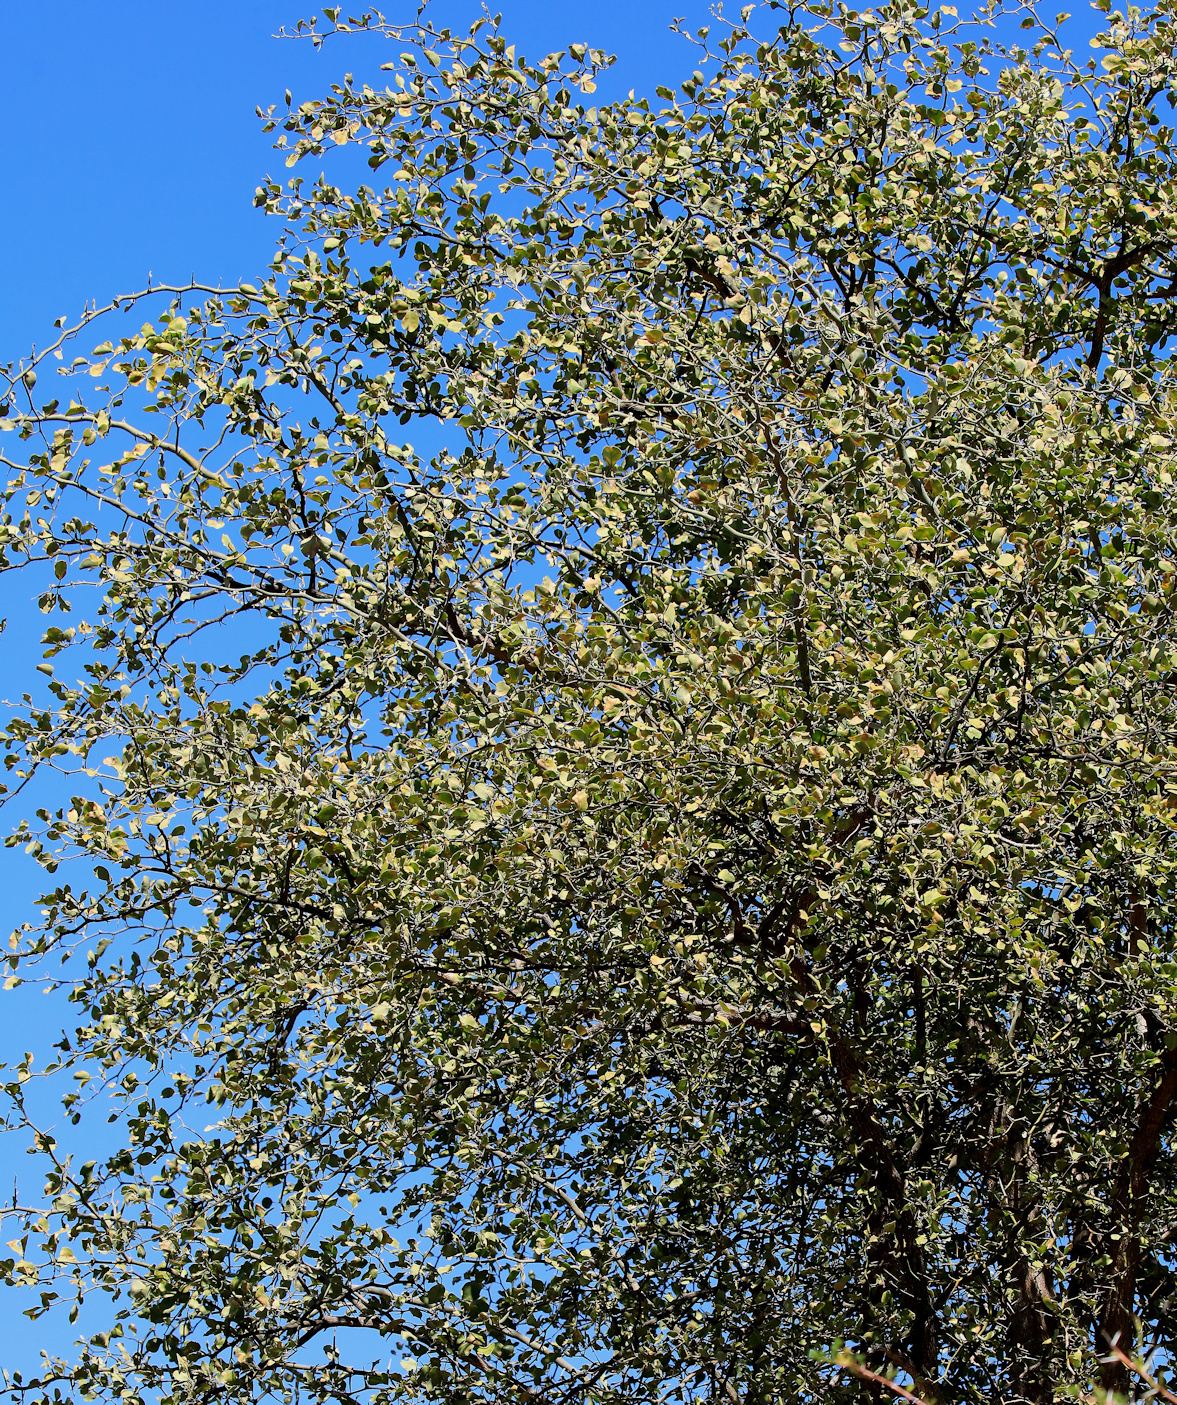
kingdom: Plantae
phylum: Tracheophyta
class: Magnoliopsida
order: Zygophyllales
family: Zygophyllaceae
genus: Balanites
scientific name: Balanites maughamii
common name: Torchwood
